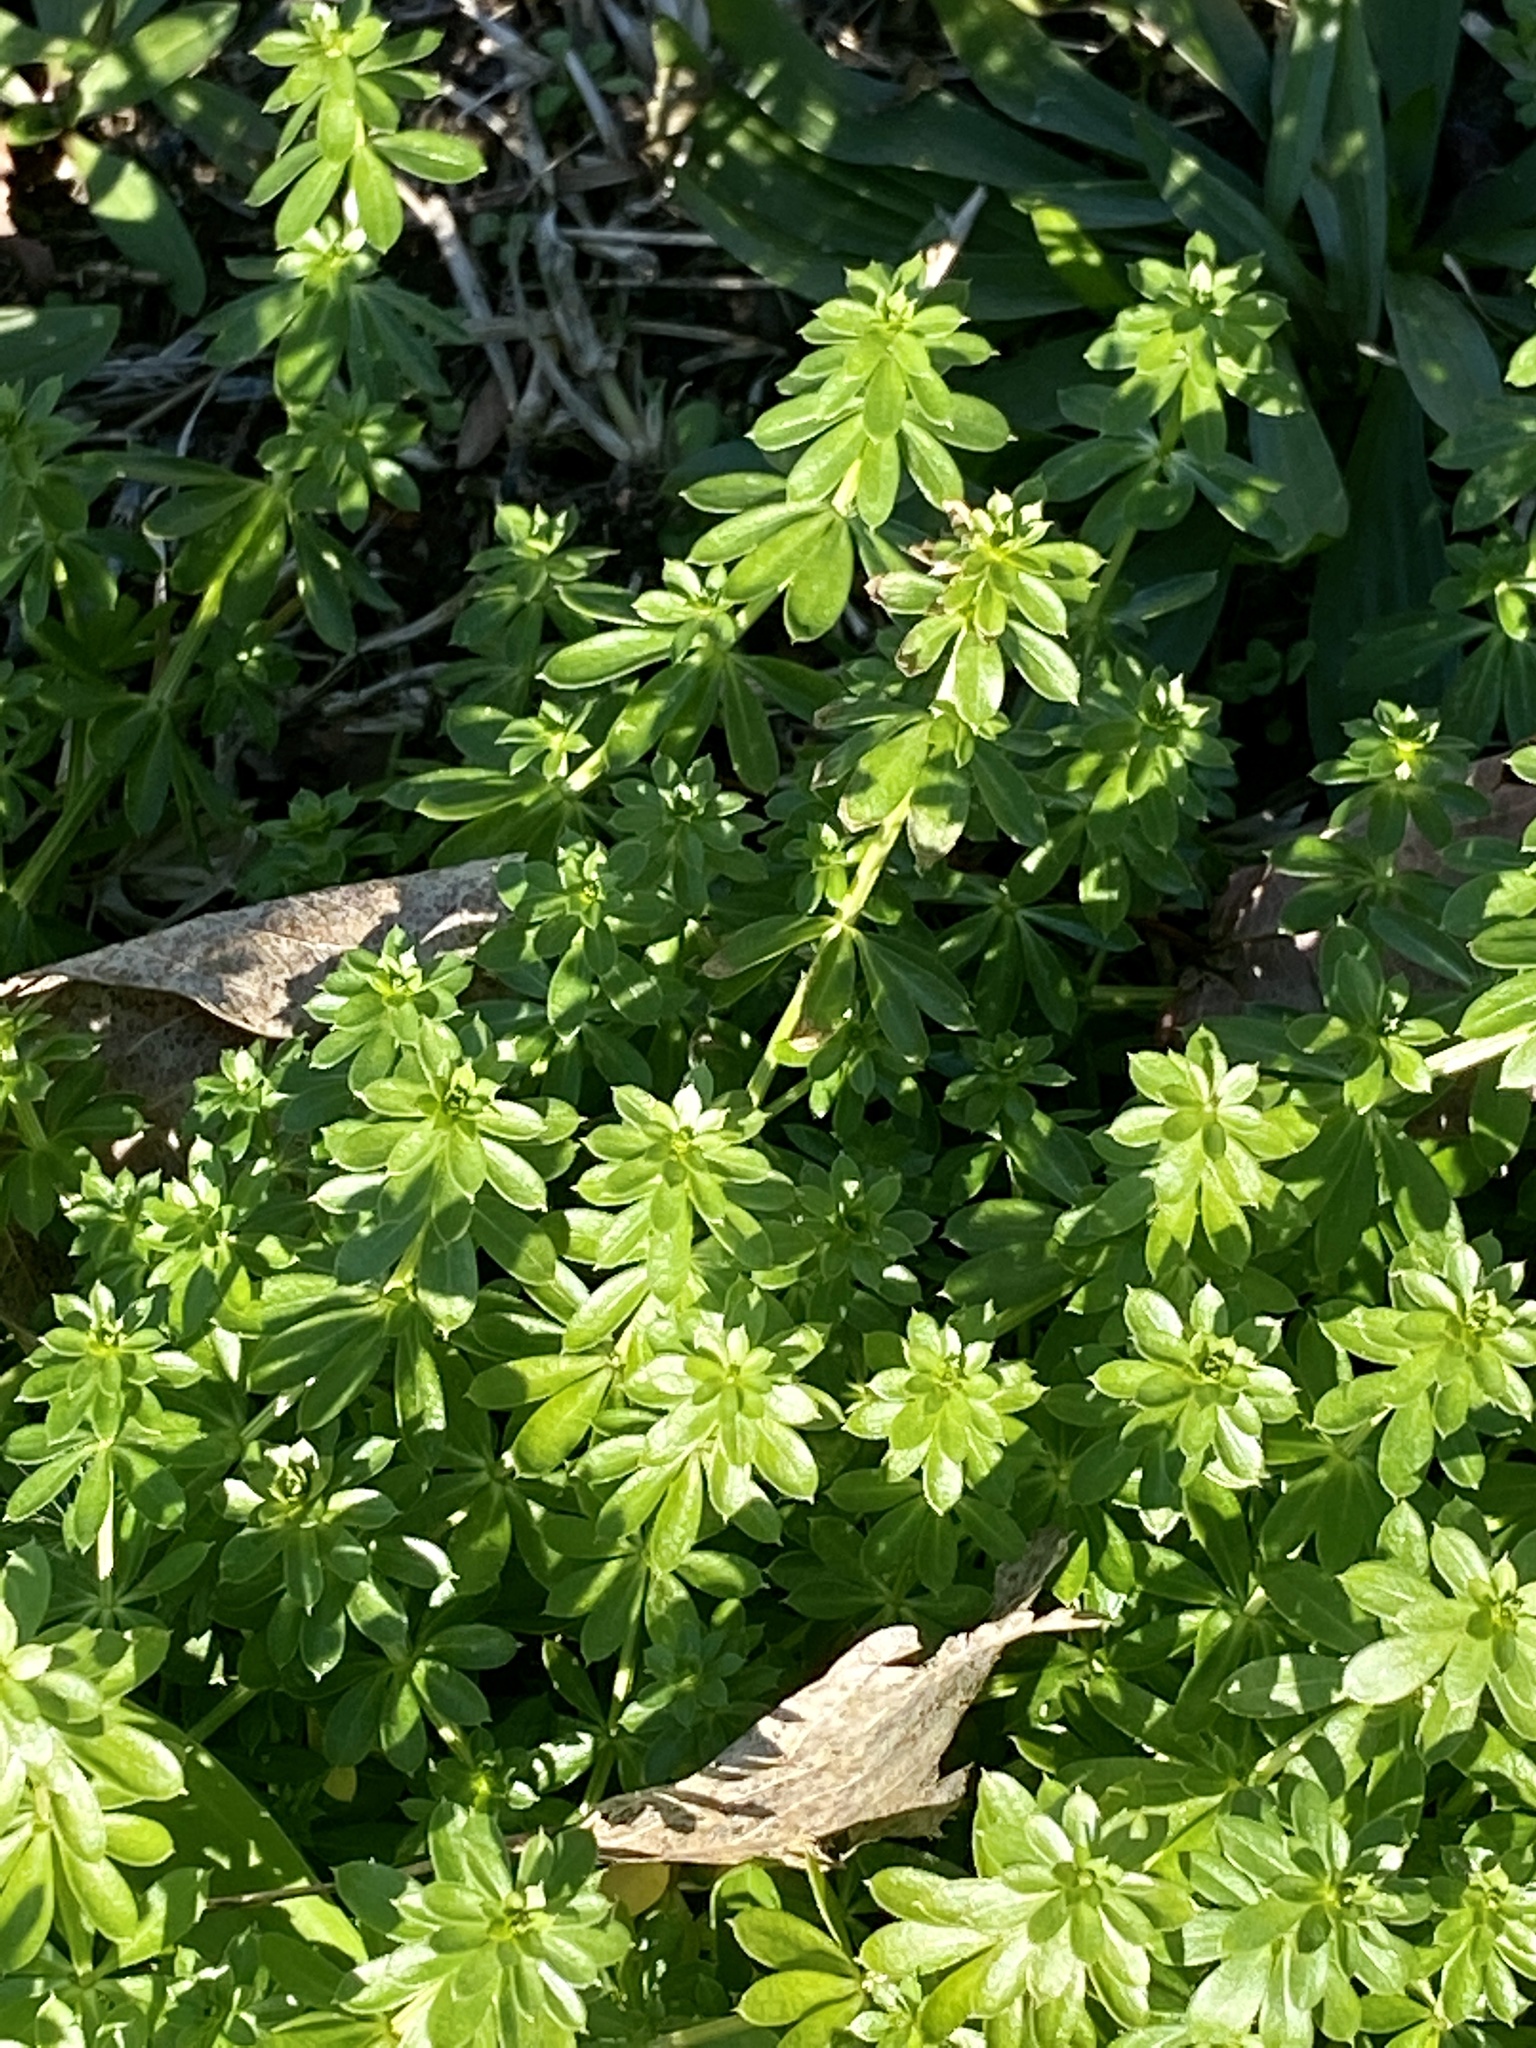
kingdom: Plantae
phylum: Tracheophyta
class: Magnoliopsida
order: Gentianales
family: Rubiaceae
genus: Galium
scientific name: Galium mollugo
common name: Hedge bedstraw
